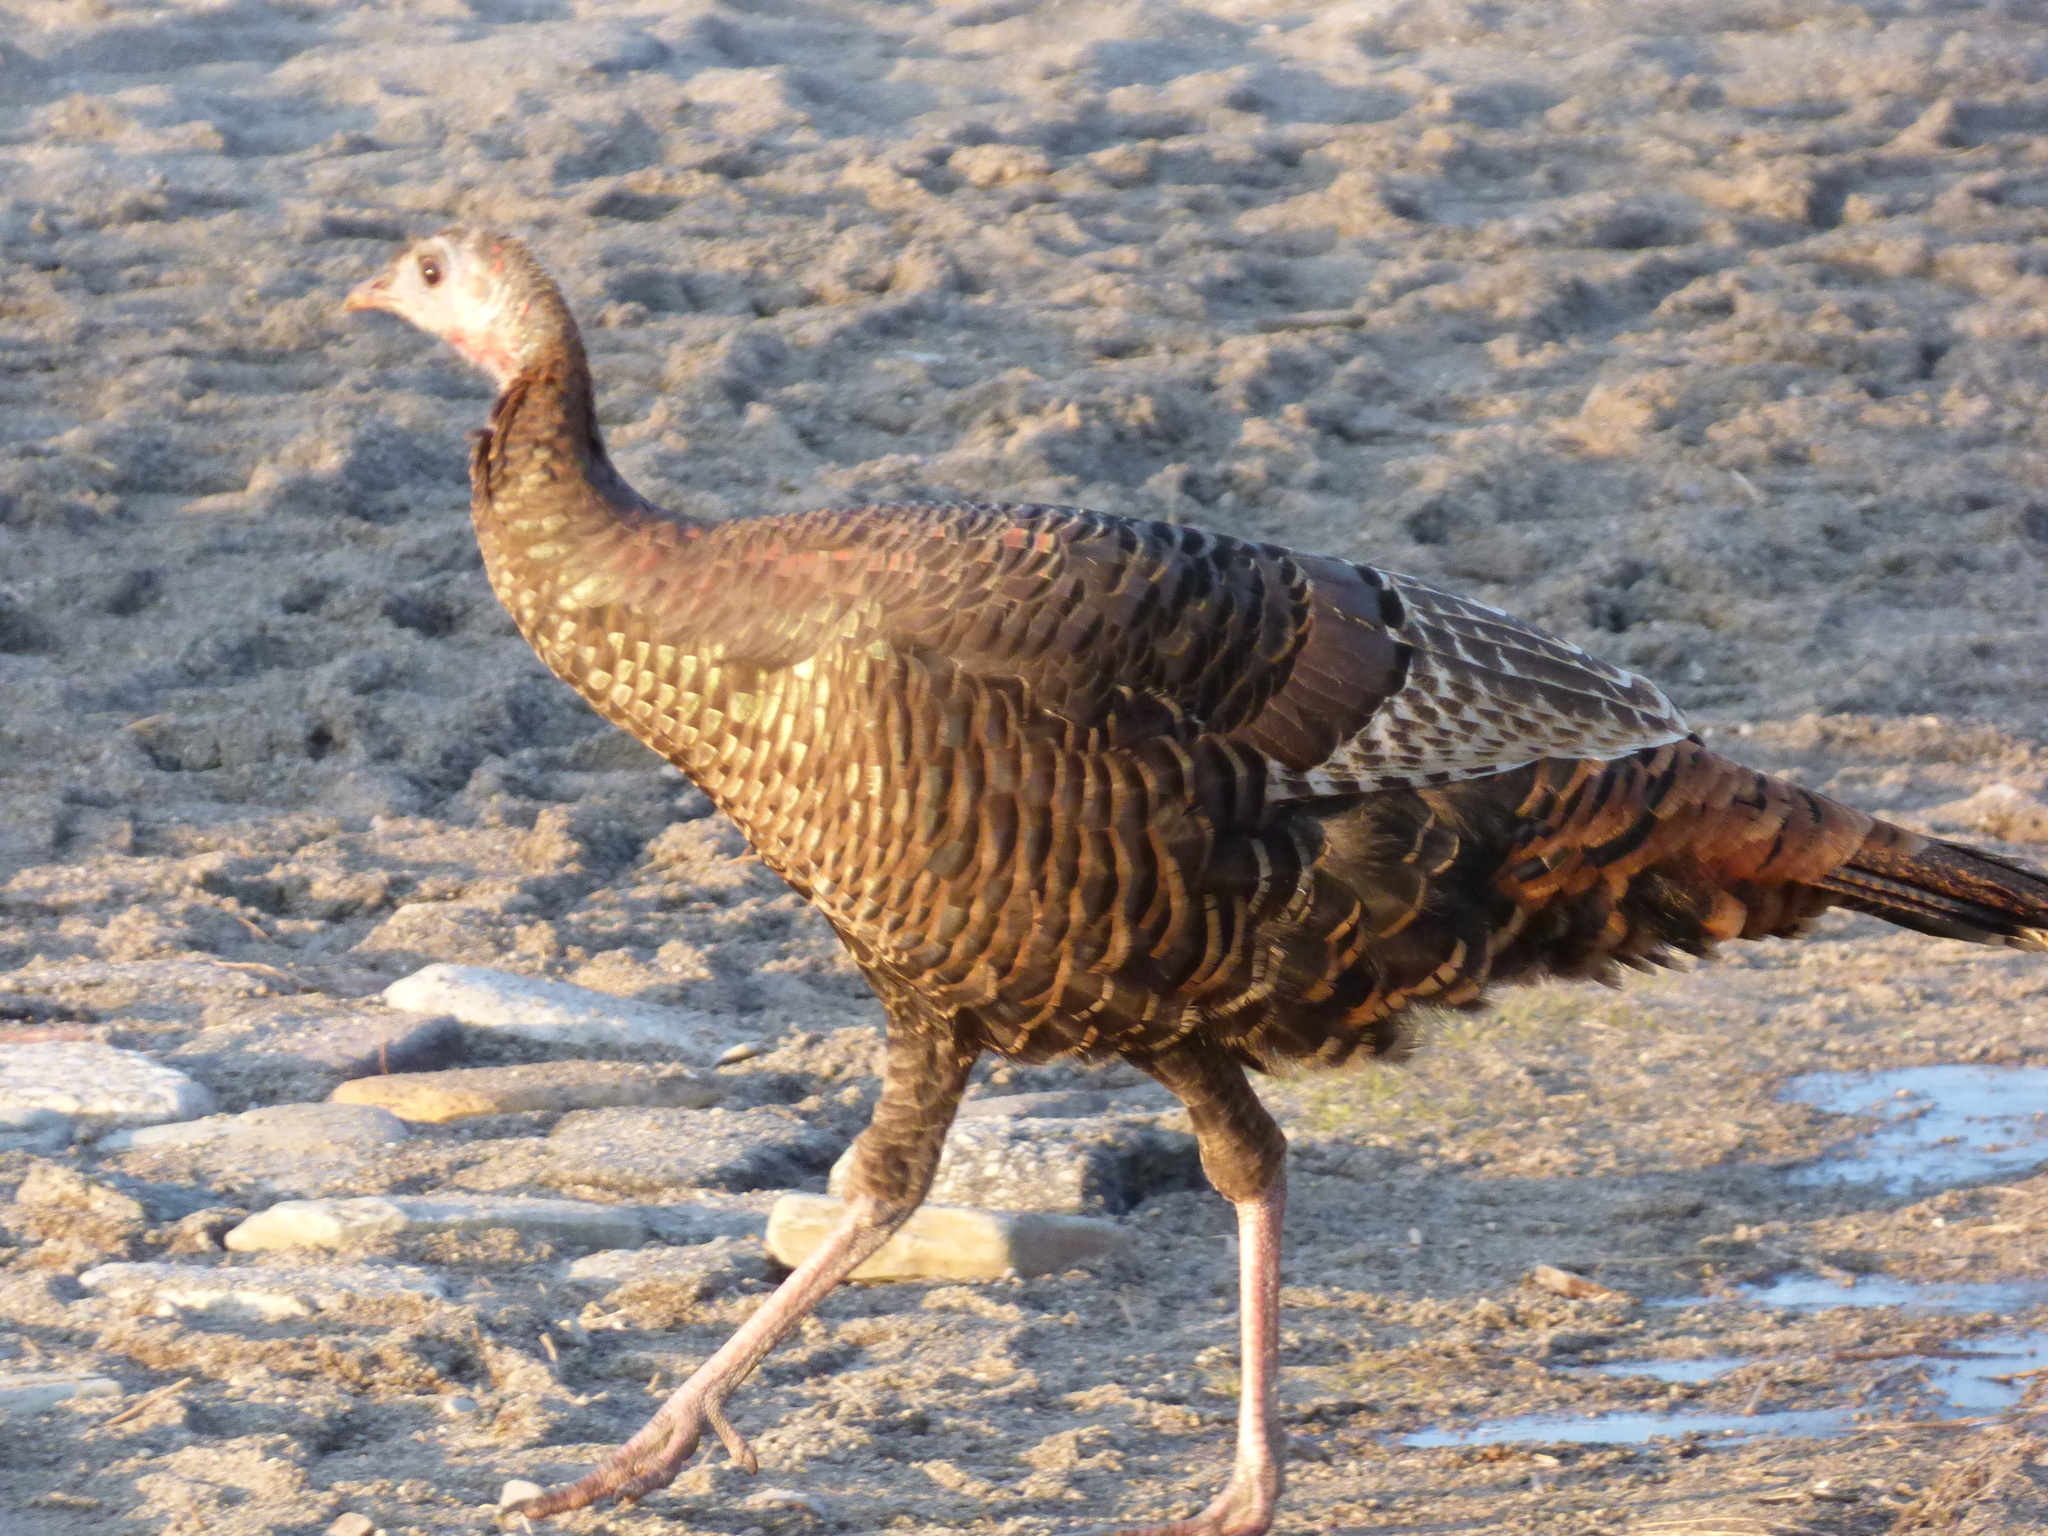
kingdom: Animalia
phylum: Chordata
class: Aves
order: Galliformes
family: Phasianidae
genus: Meleagris
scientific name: Meleagris gallopavo
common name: Wild turkey
